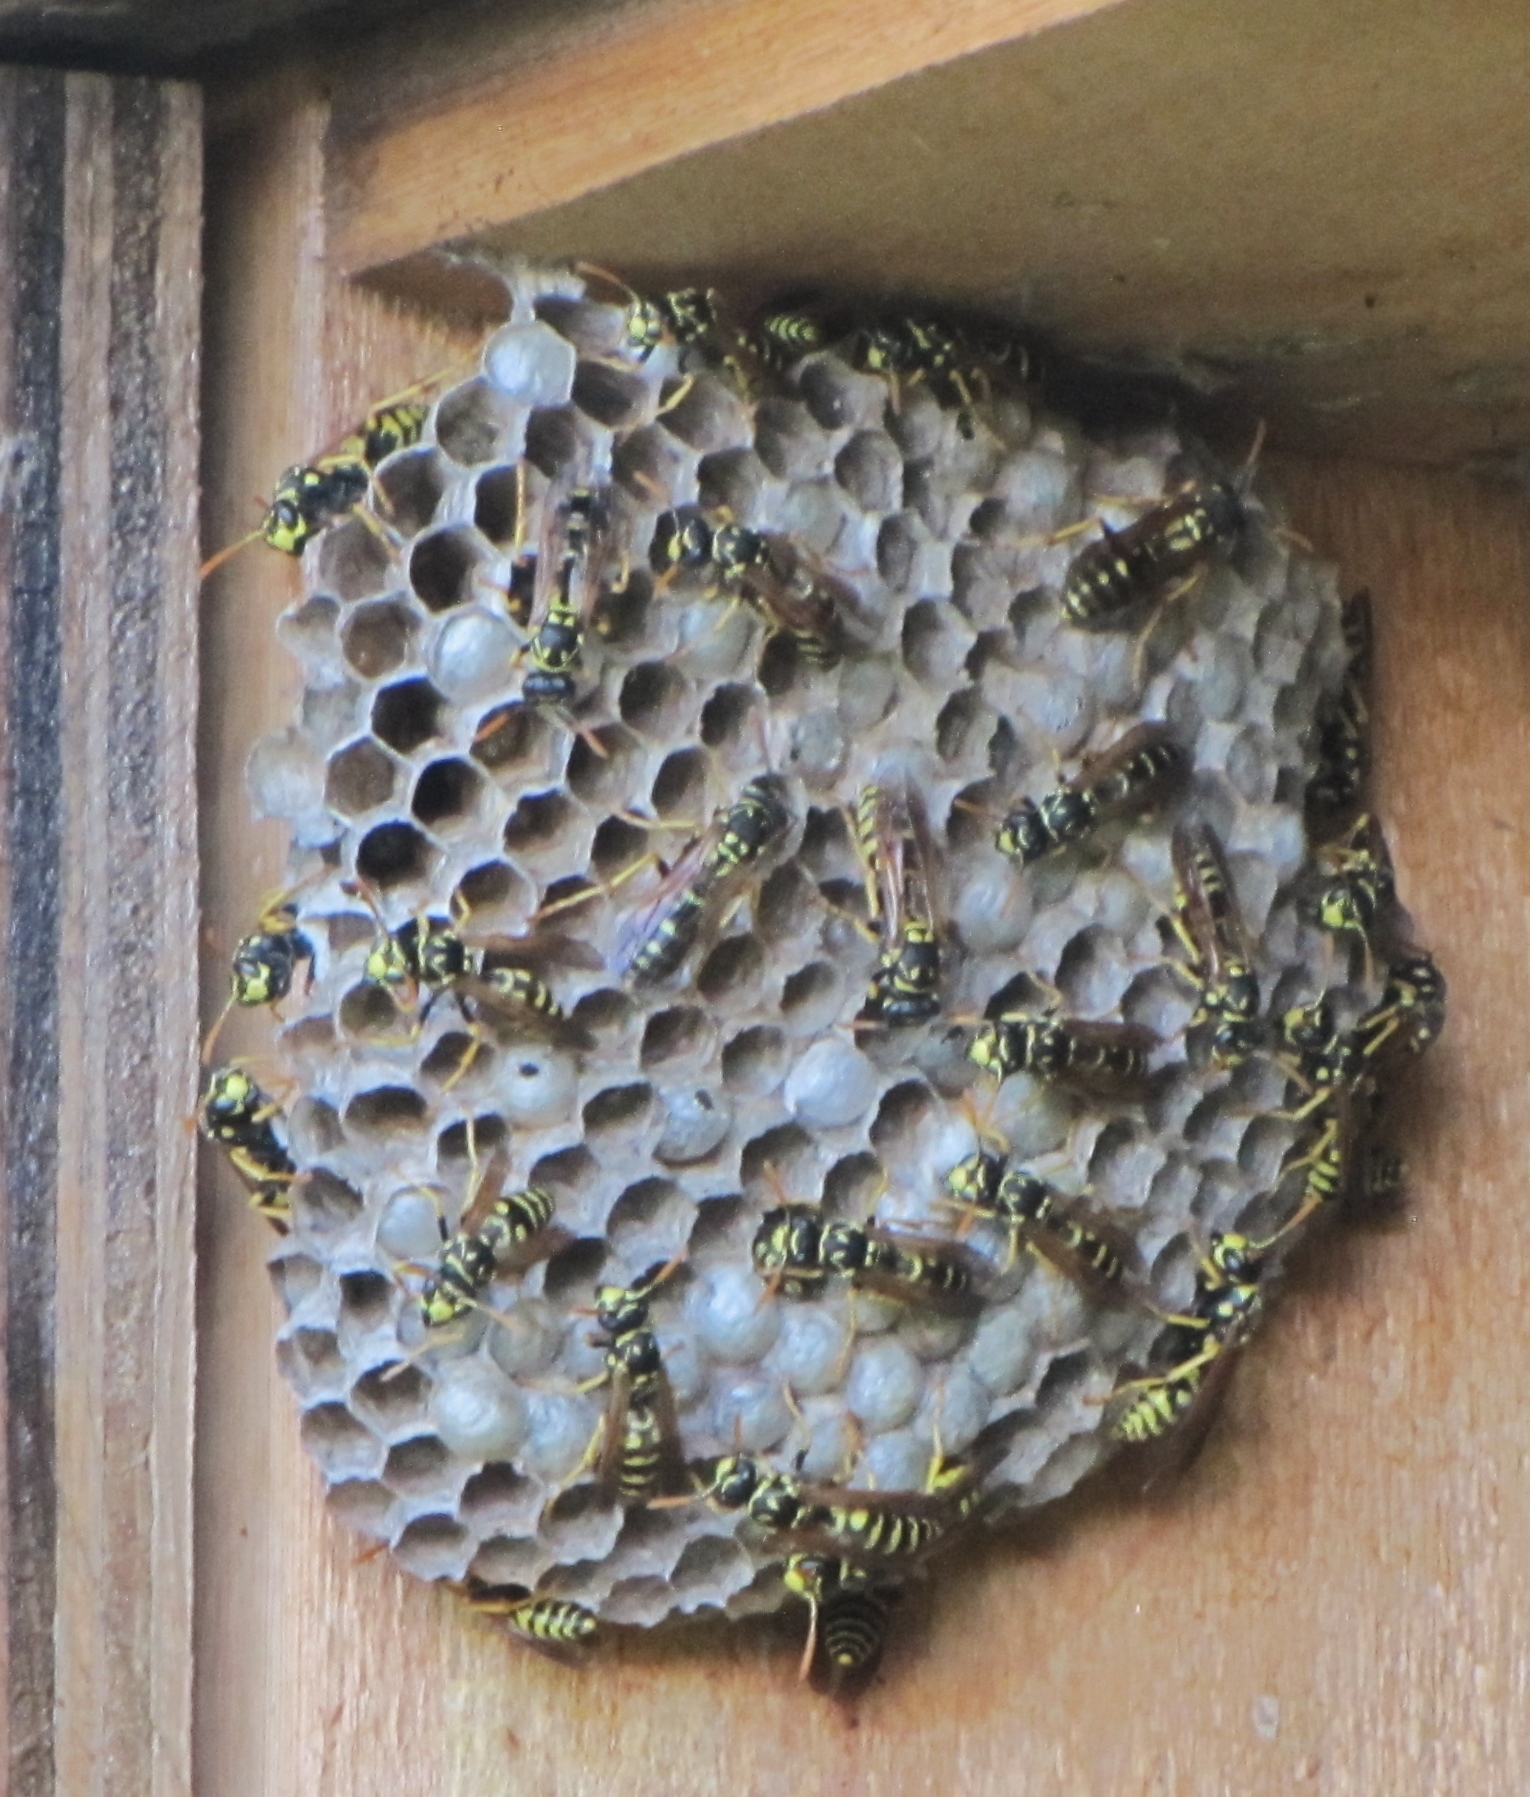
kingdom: Animalia
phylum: Arthropoda
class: Insecta
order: Hymenoptera
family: Eumenidae
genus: Polistes
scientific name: Polistes dominula
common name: Paper wasp
